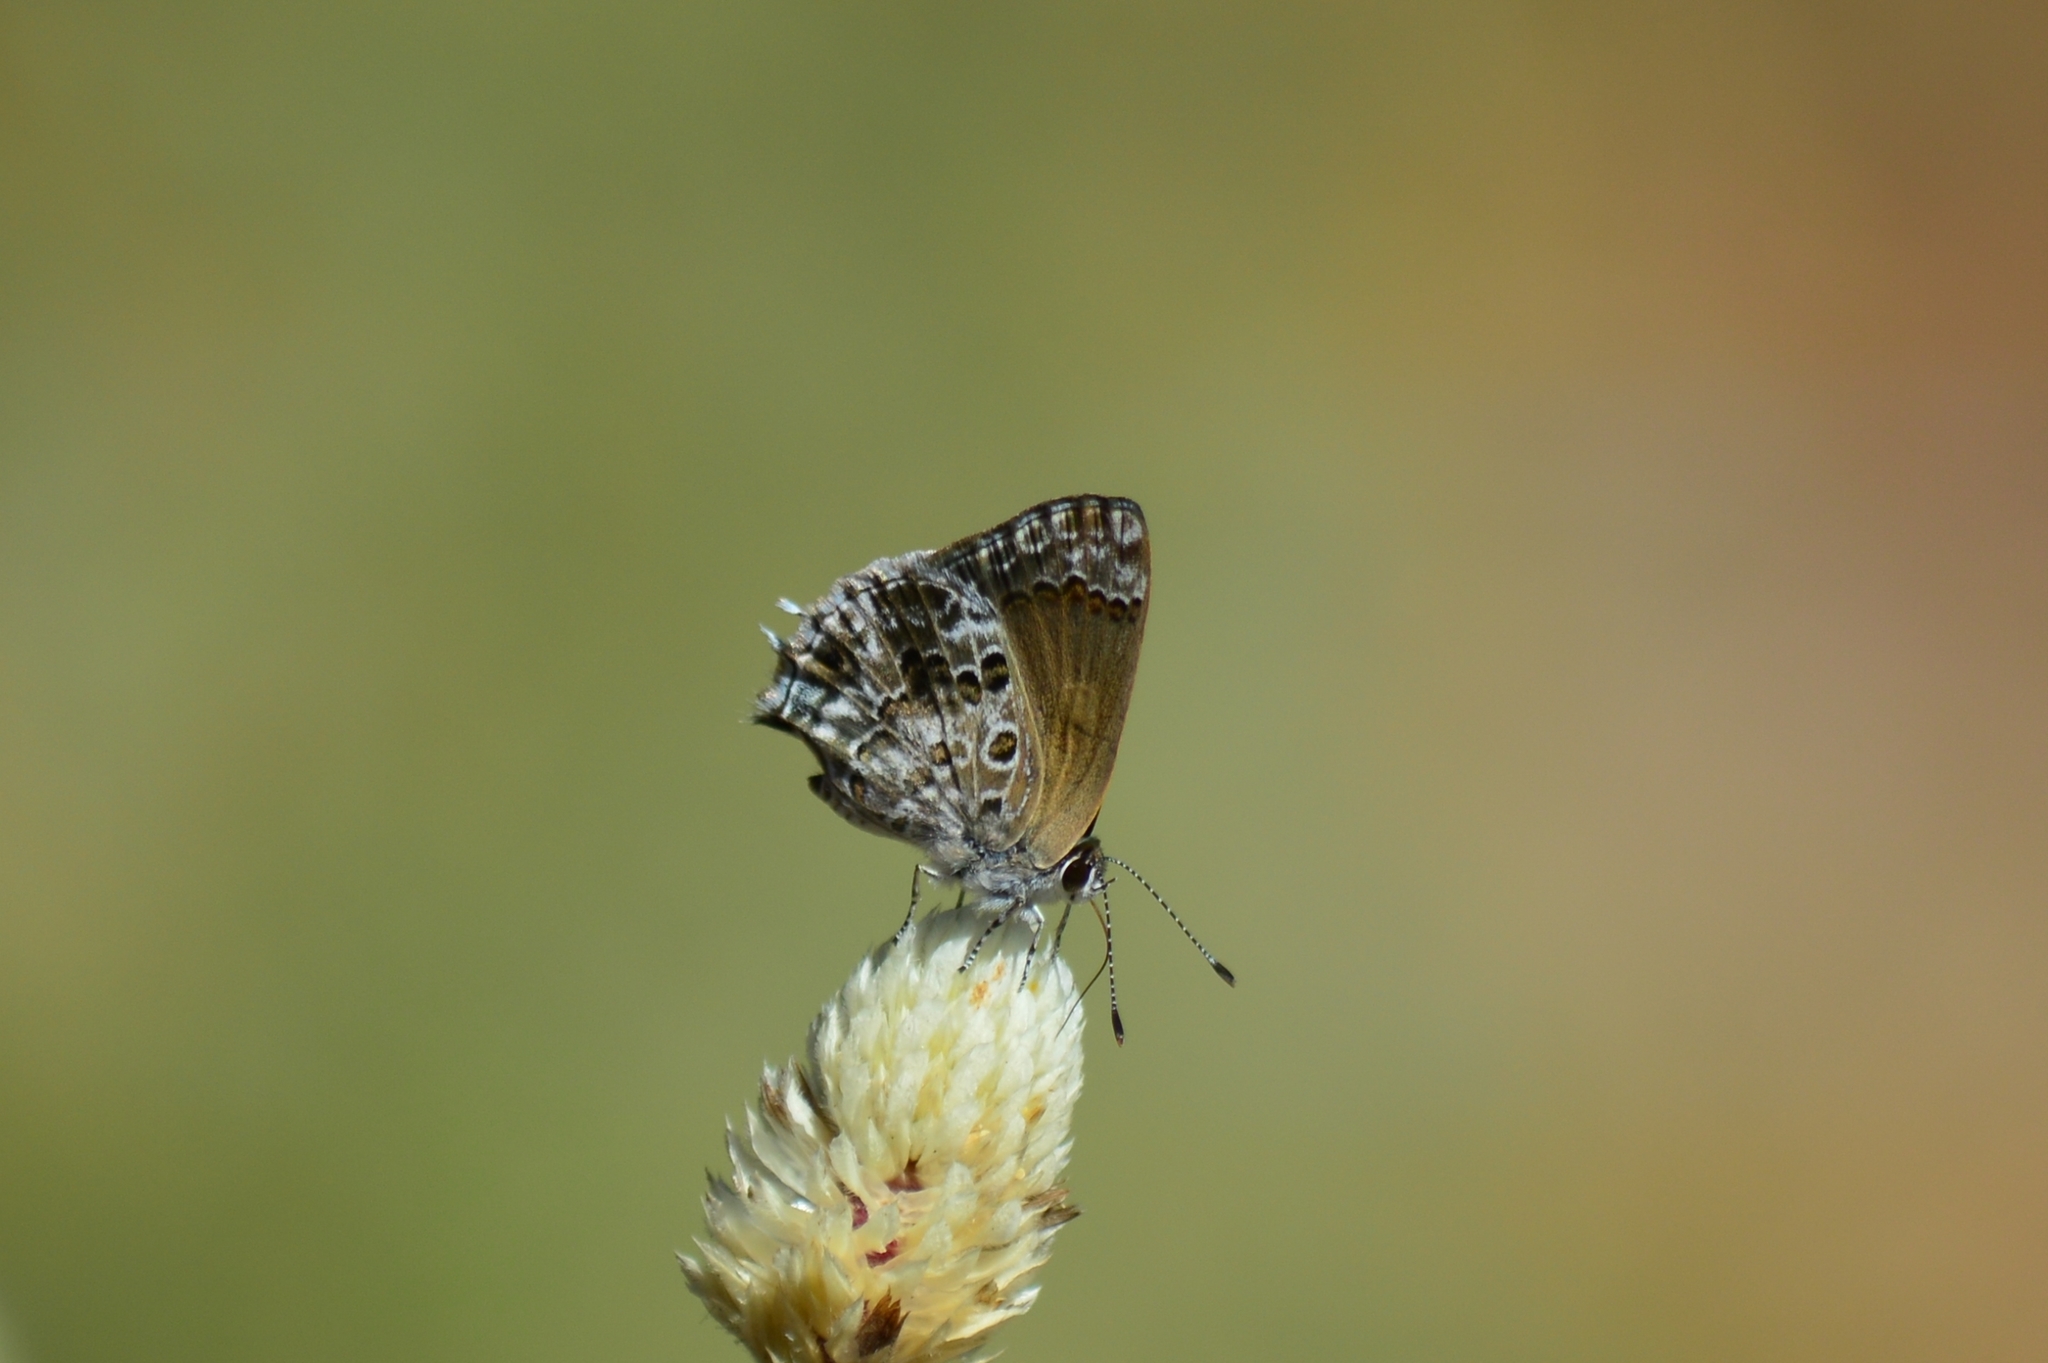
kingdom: Animalia
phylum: Arthropoda
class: Insecta
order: Lepidoptera
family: Lycaenidae
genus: Strymon
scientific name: Strymon astiocha
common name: Gray-spotted scrub-hairstreak
